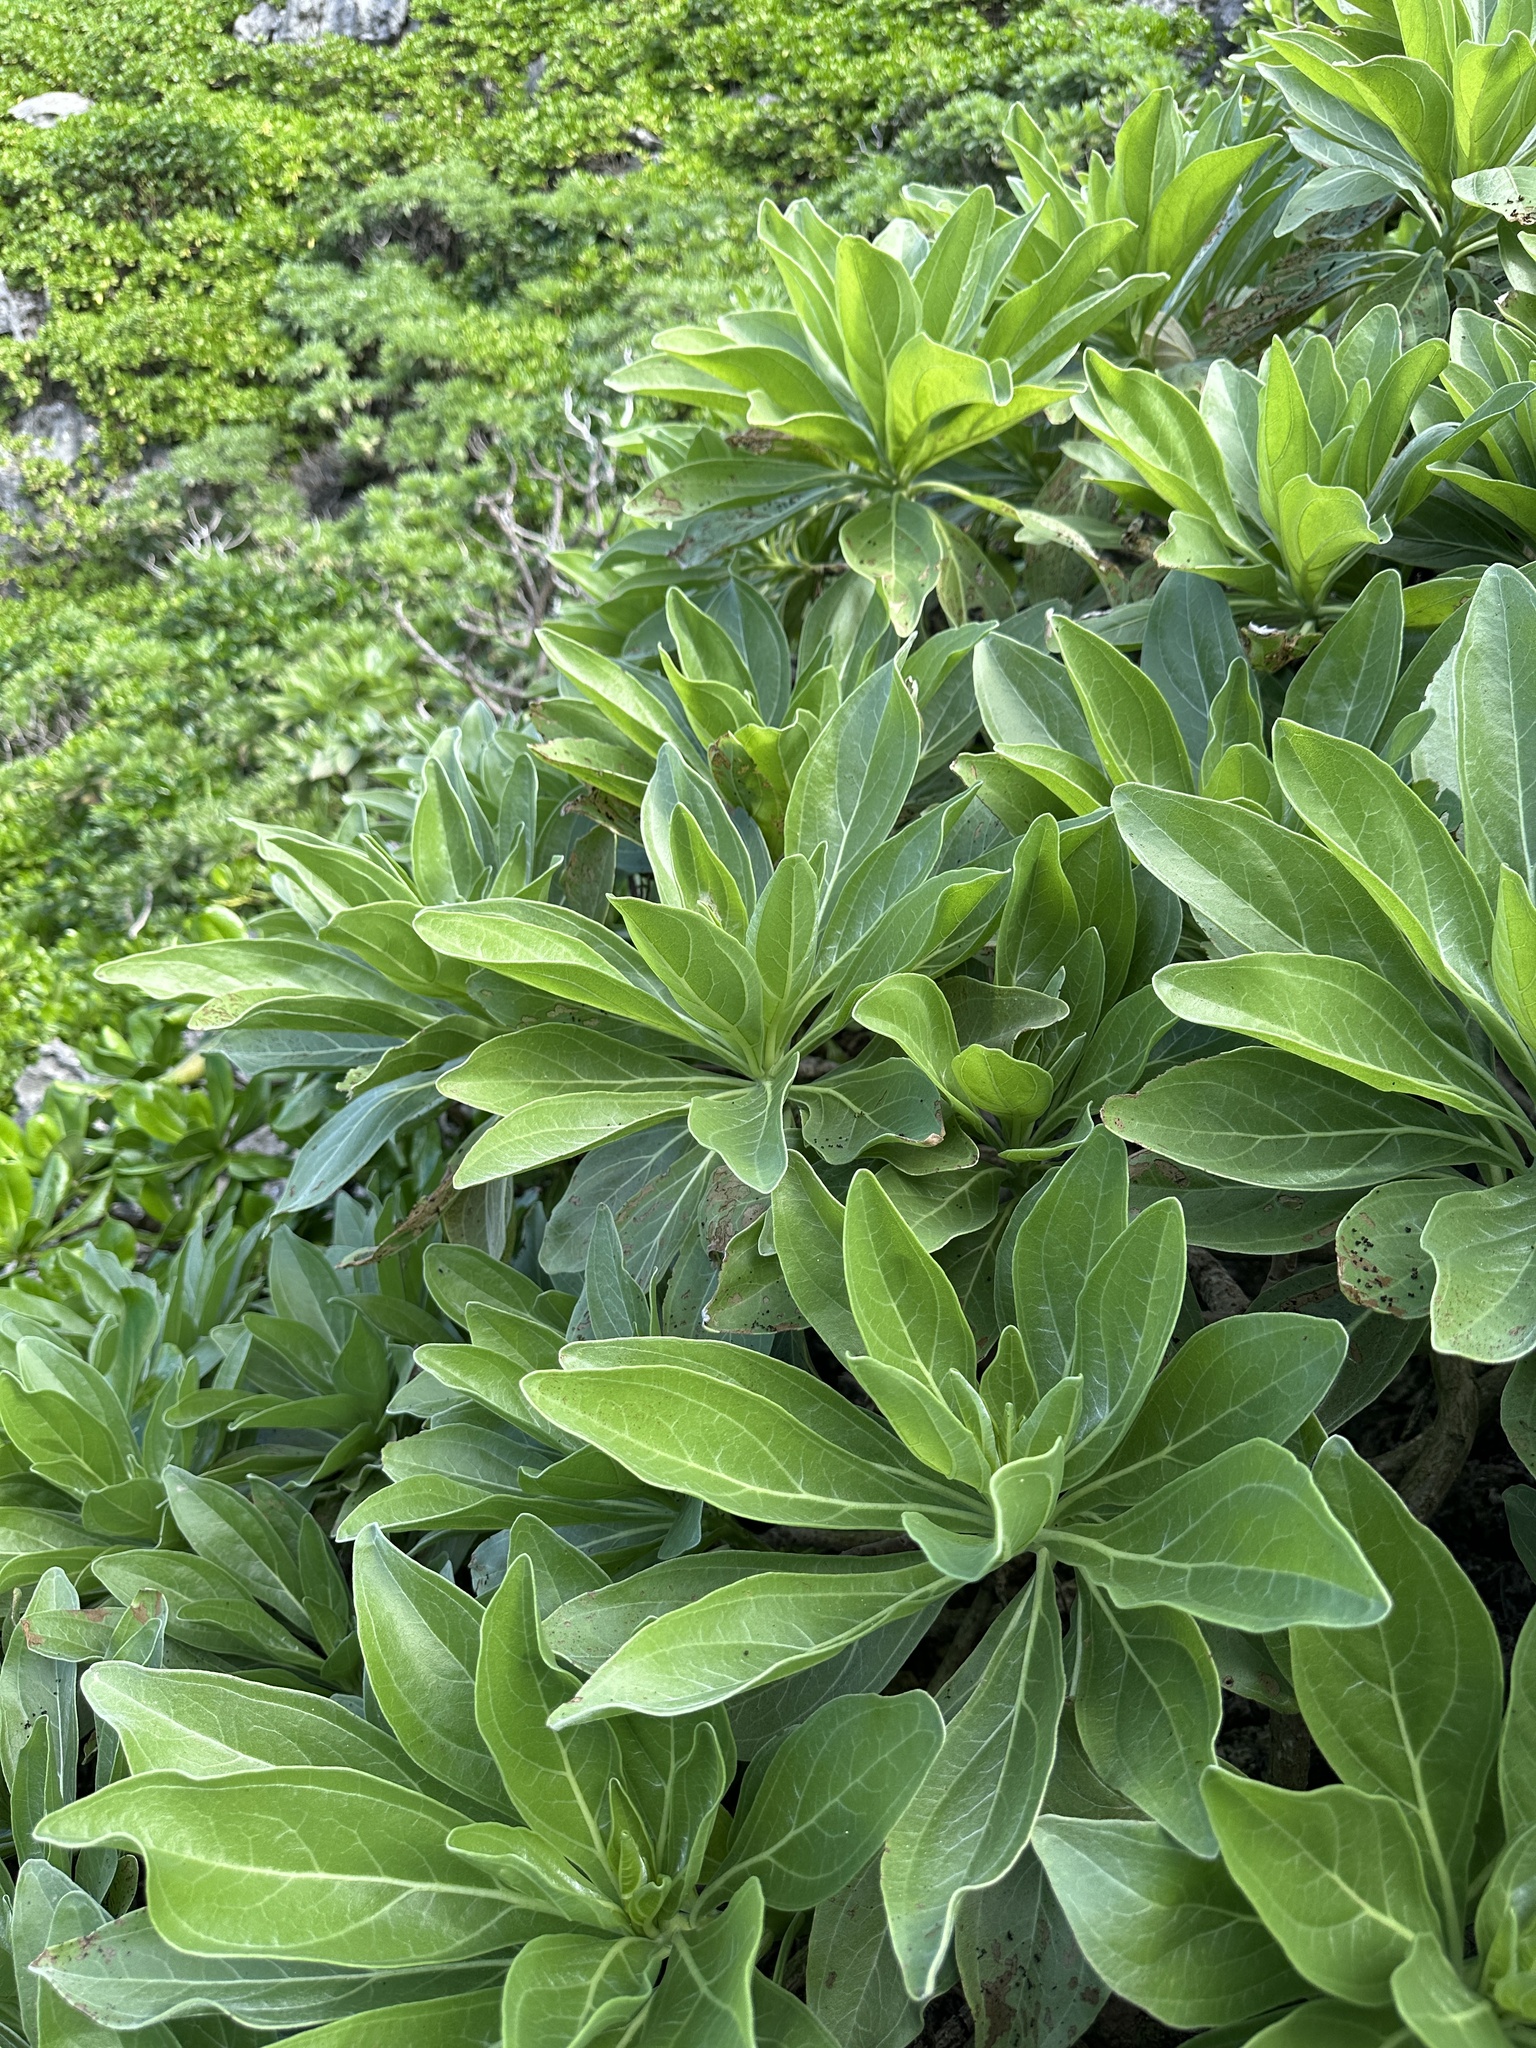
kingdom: Plantae
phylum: Tracheophyta
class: Magnoliopsida
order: Boraginales
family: Heliotropiaceae
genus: Heliotropium
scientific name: Heliotropium velutinum
